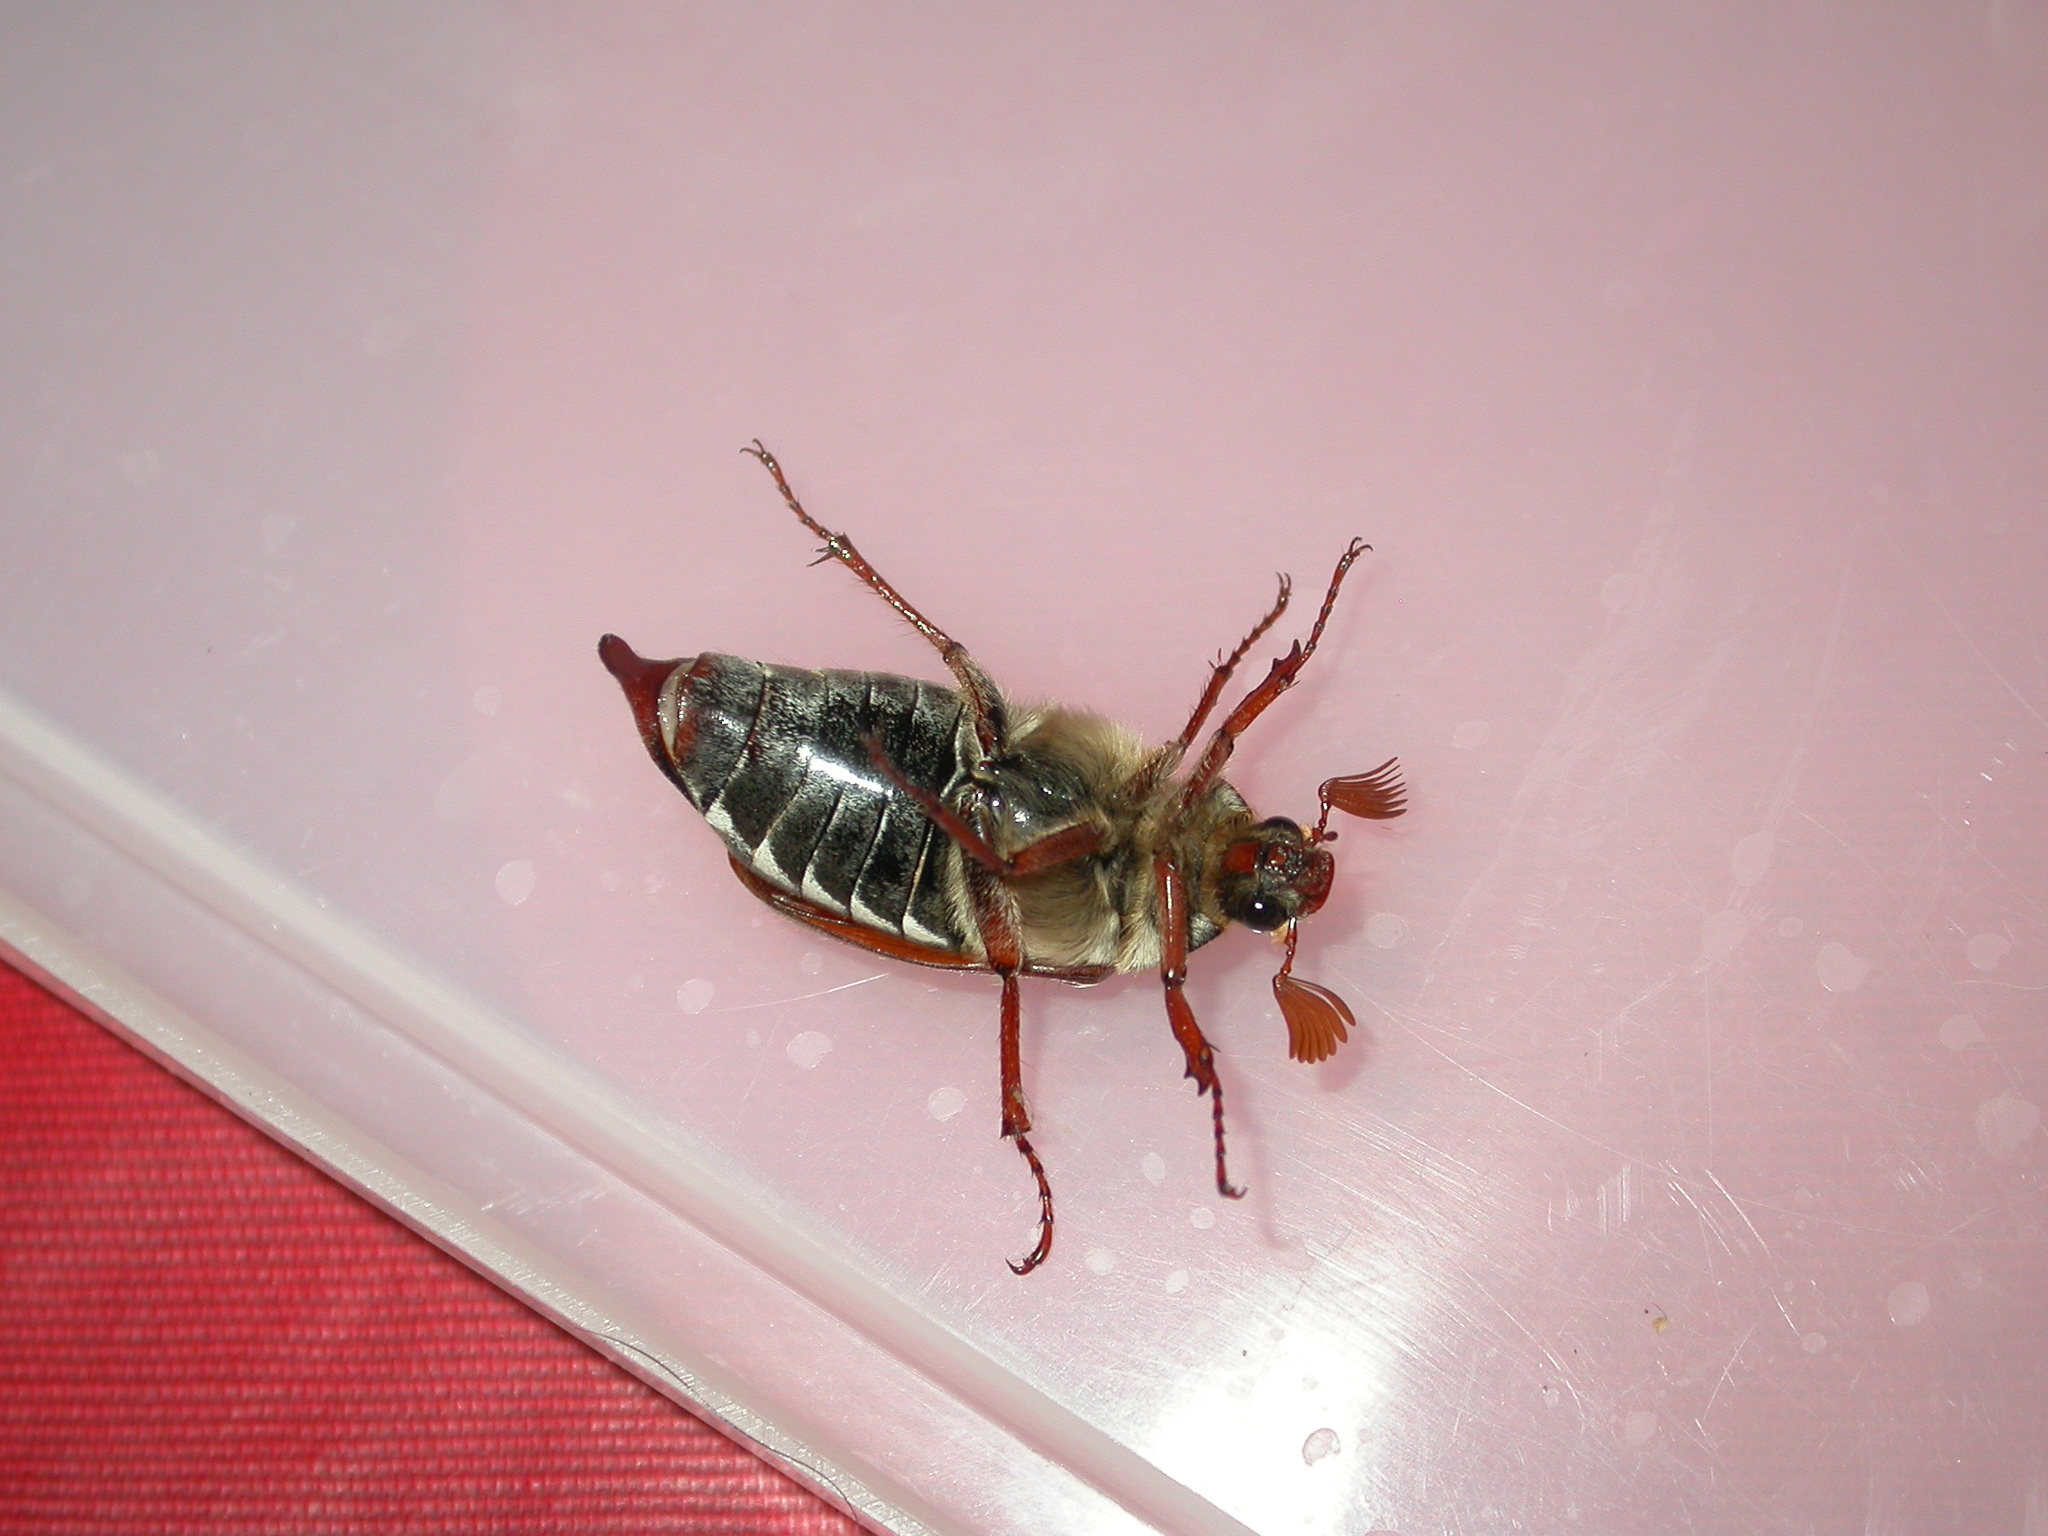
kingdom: Animalia
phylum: Arthropoda
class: Insecta
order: Coleoptera
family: Scarabaeidae
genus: Melolontha
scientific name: Melolontha melolontha
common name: Cockchafer maybeetle
